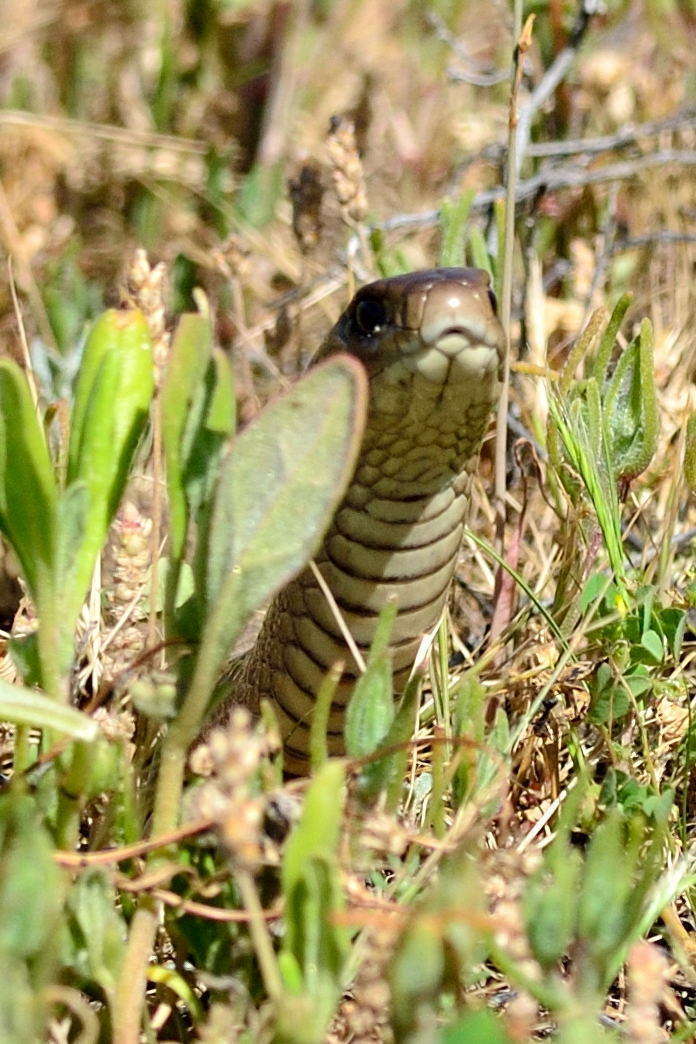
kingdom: Animalia
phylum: Chordata
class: Squamata
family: Elapidae
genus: Pseudonaja
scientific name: Pseudonaja textilis
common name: Eastern brown snake
